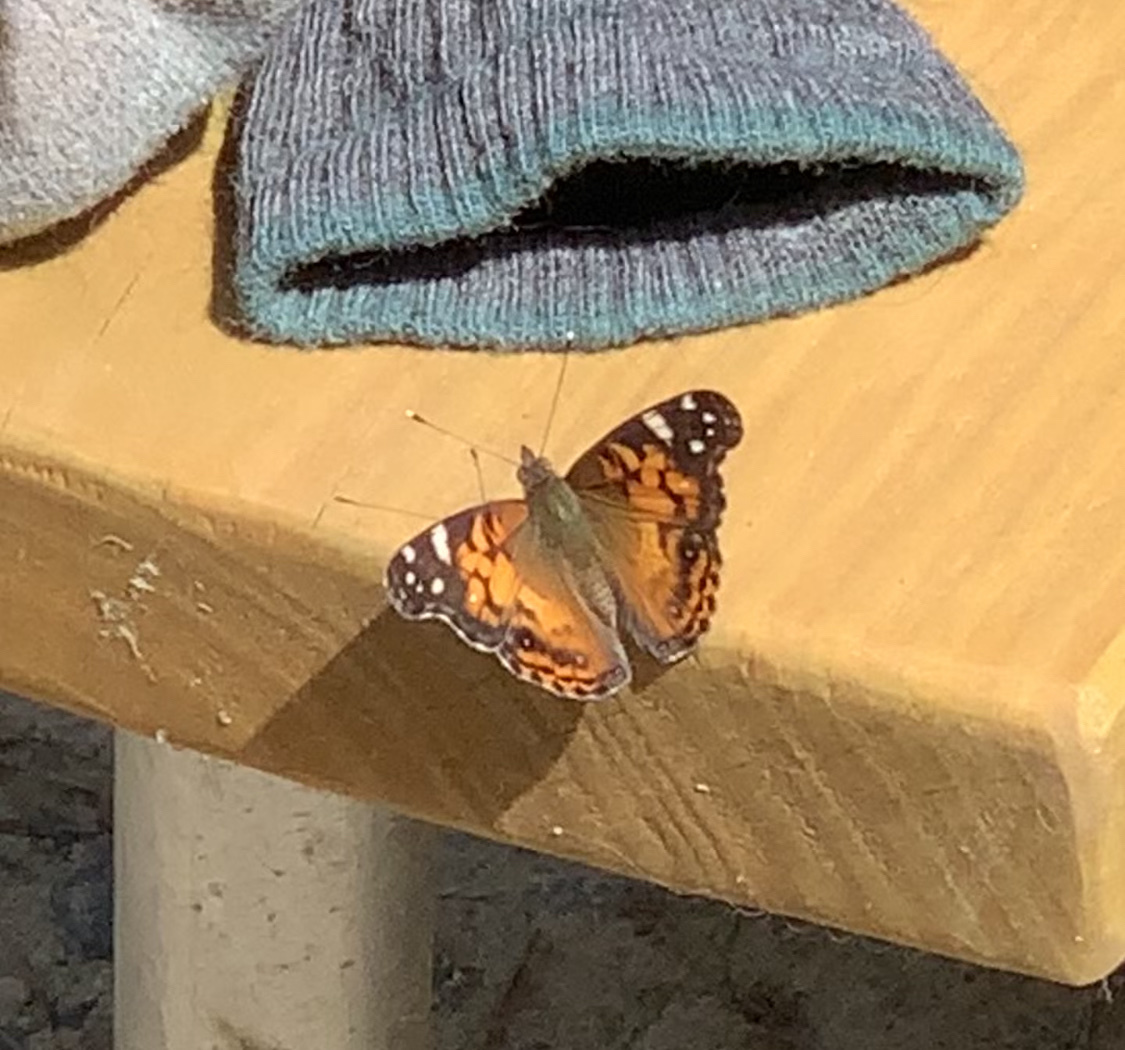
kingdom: Animalia
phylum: Arthropoda
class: Insecta
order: Lepidoptera
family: Nymphalidae
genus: Vanessa
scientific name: Vanessa virginiensis
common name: American lady
